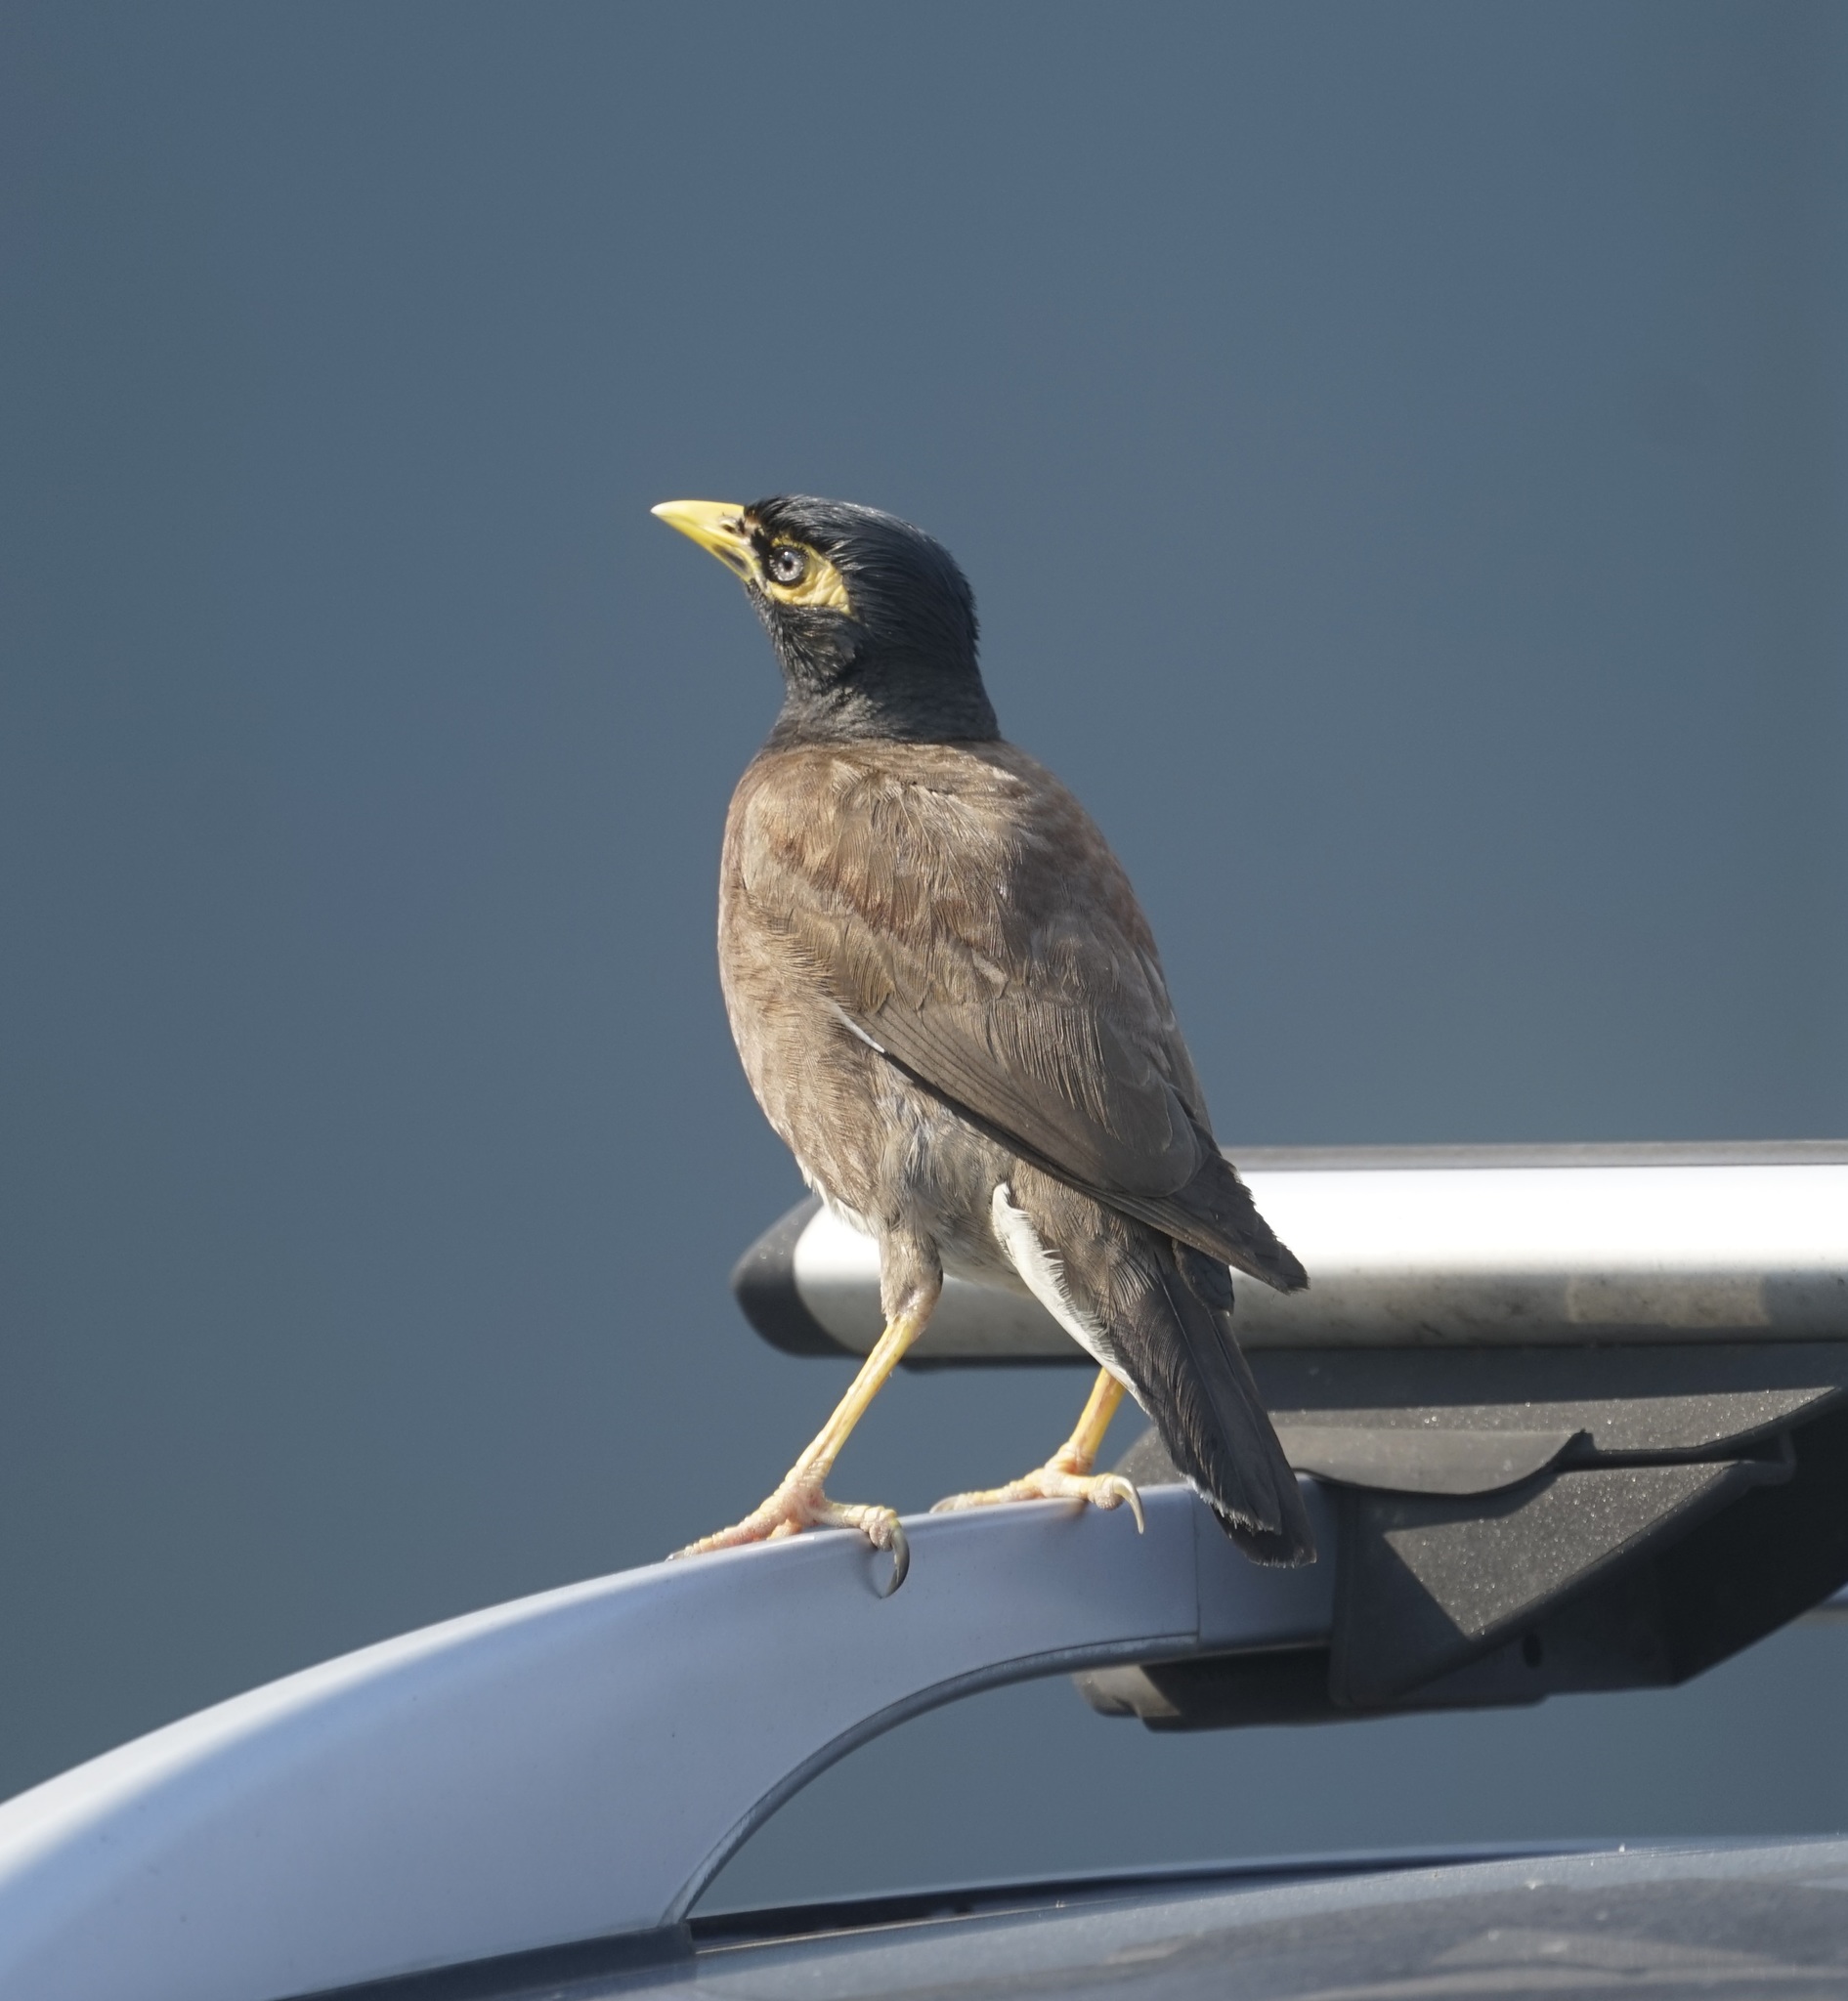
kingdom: Animalia
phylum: Chordata
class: Aves
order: Passeriformes
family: Sturnidae
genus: Acridotheres
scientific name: Acridotheres tristis
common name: Common myna
